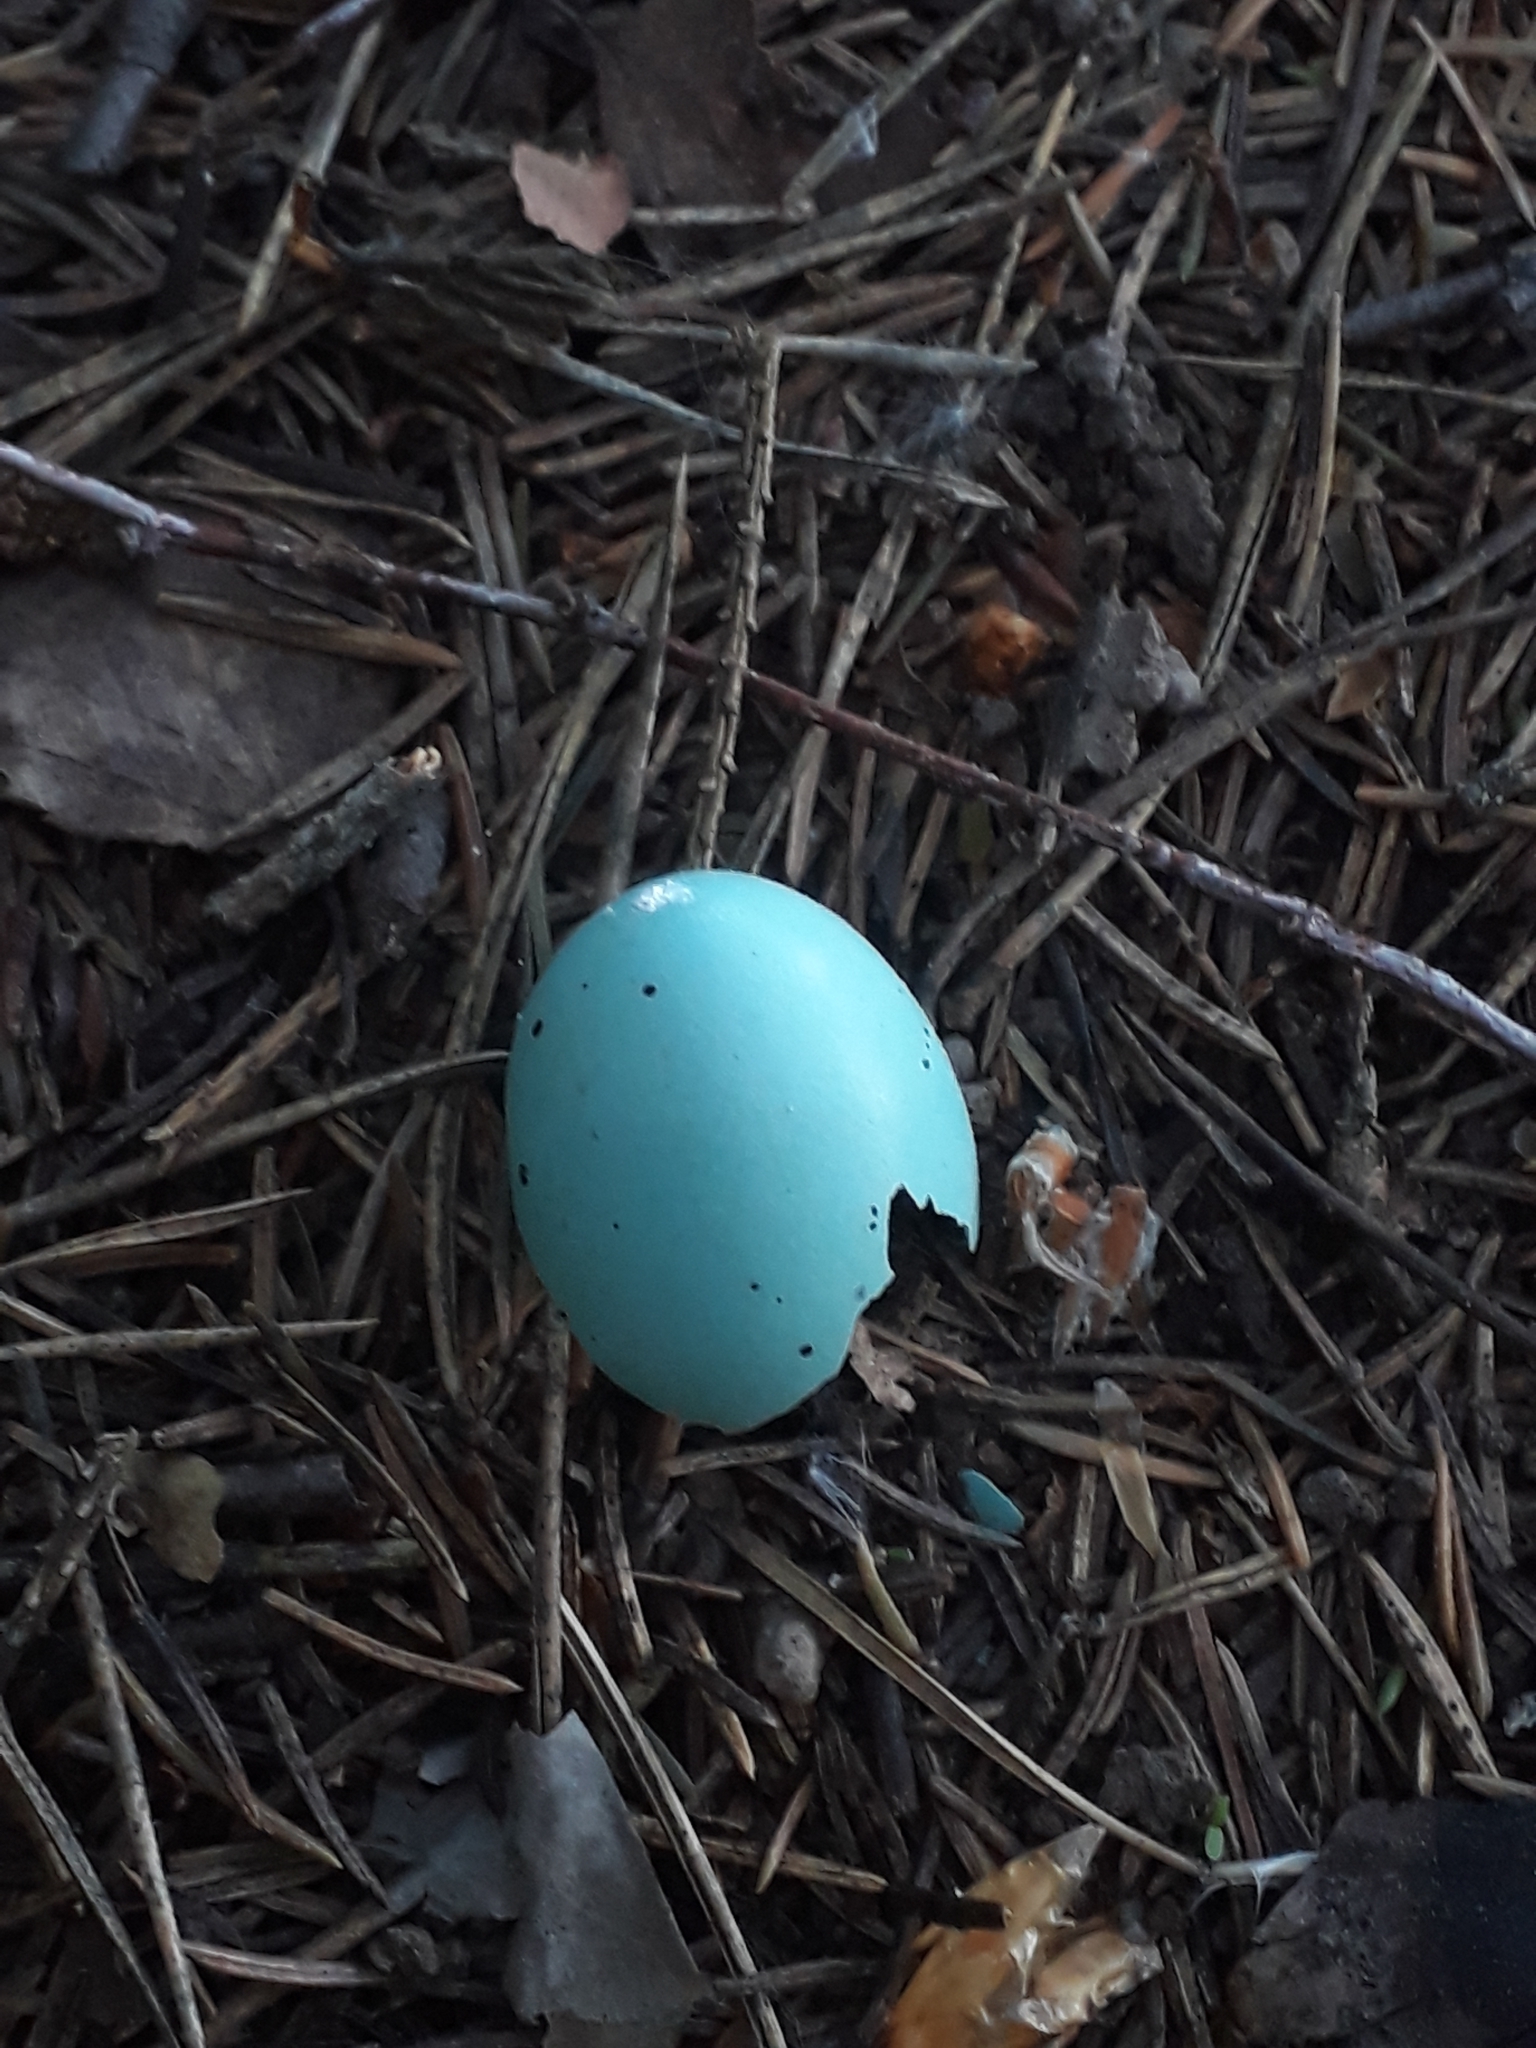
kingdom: Animalia
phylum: Chordata
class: Aves
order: Passeriformes
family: Turdidae
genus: Turdus
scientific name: Turdus philomelos
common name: Song thrush
